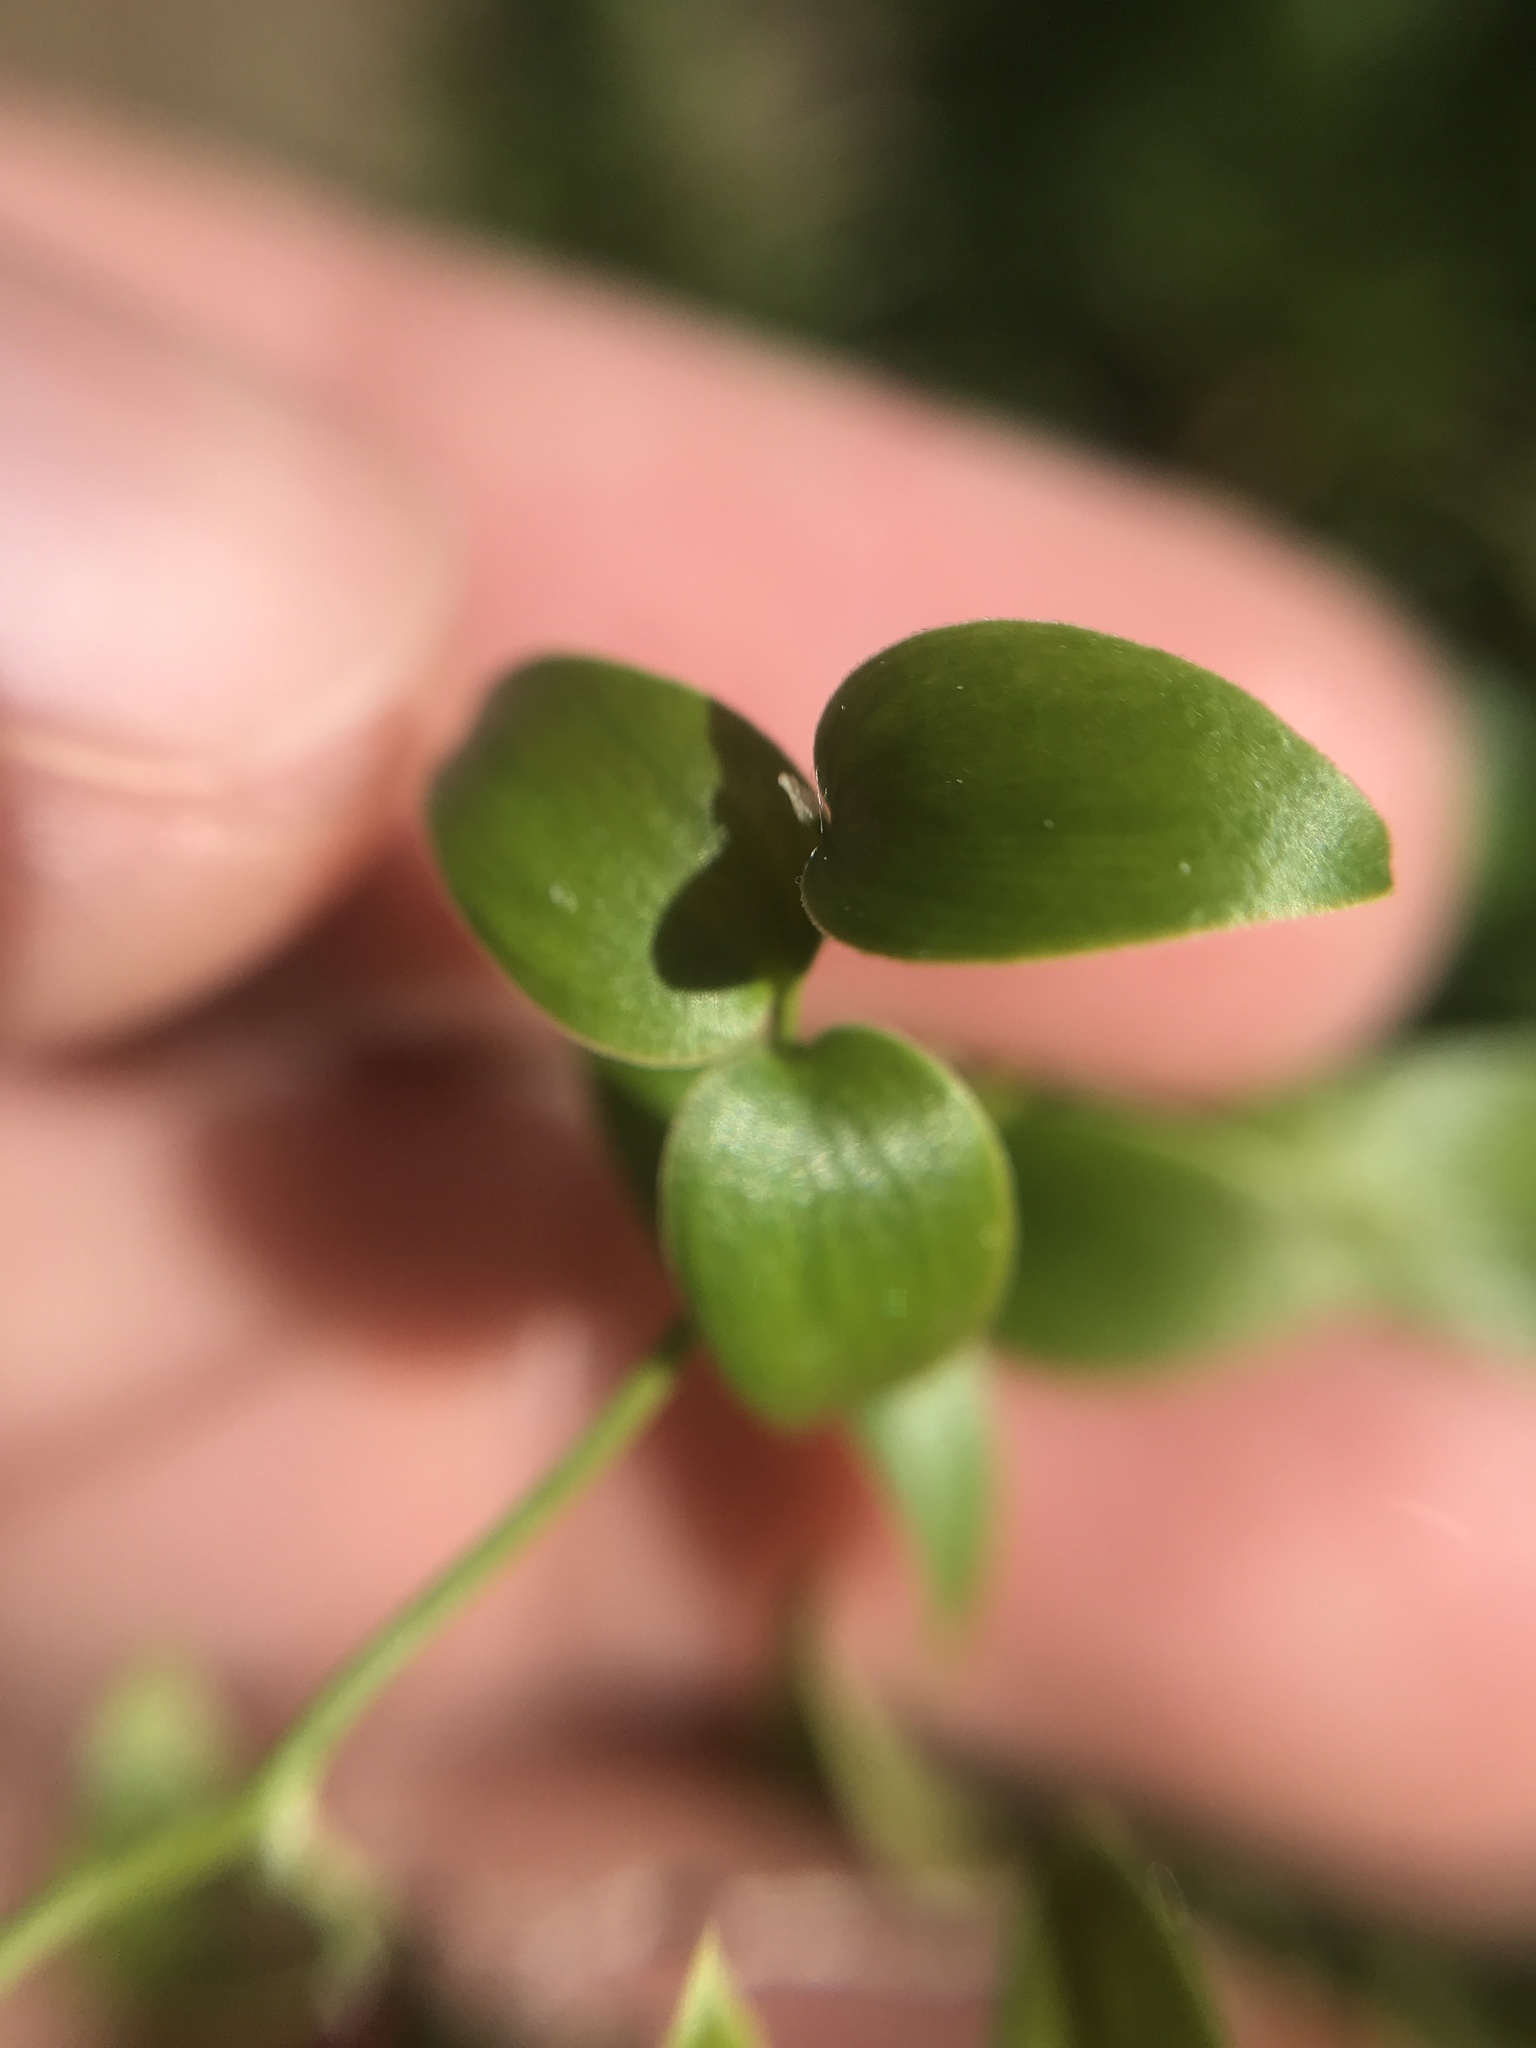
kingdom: Plantae
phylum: Tracheophyta
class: Liliopsida
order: Asparagales
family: Asparagaceae
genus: Asparagus
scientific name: Asparagus asparagoides
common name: African asparagus fern
